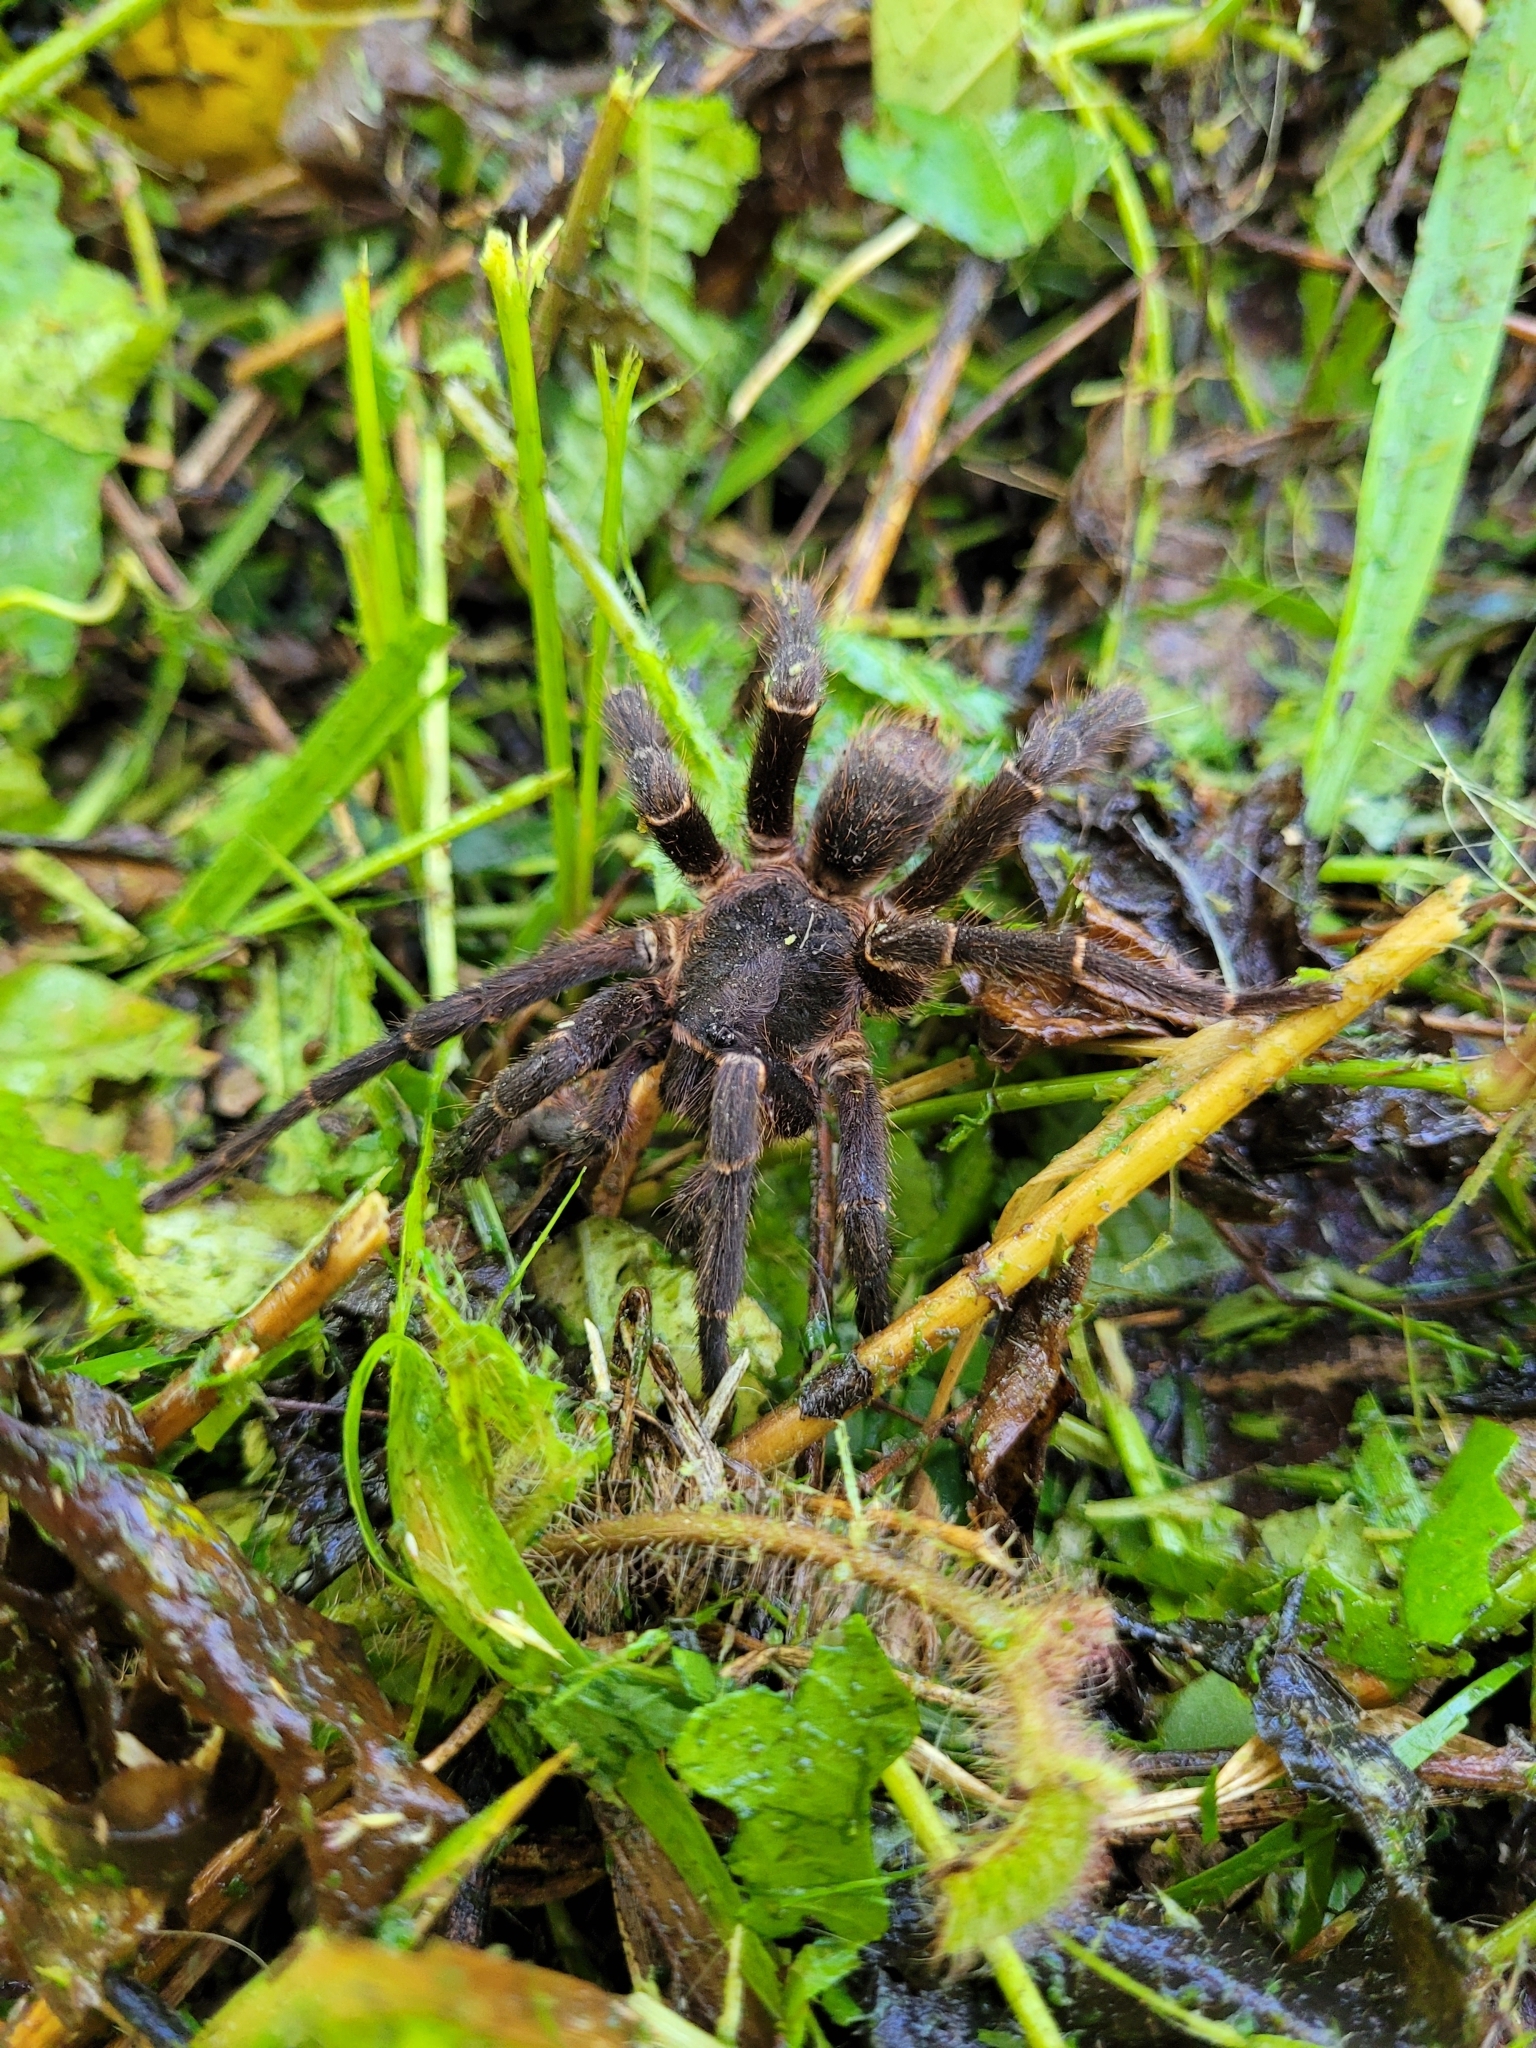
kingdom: Animalia
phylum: Arthropoda
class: Arachnida
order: Araneae
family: Theraphosidae
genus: Cyrtopholis
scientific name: Cyrtopholis portoricae
